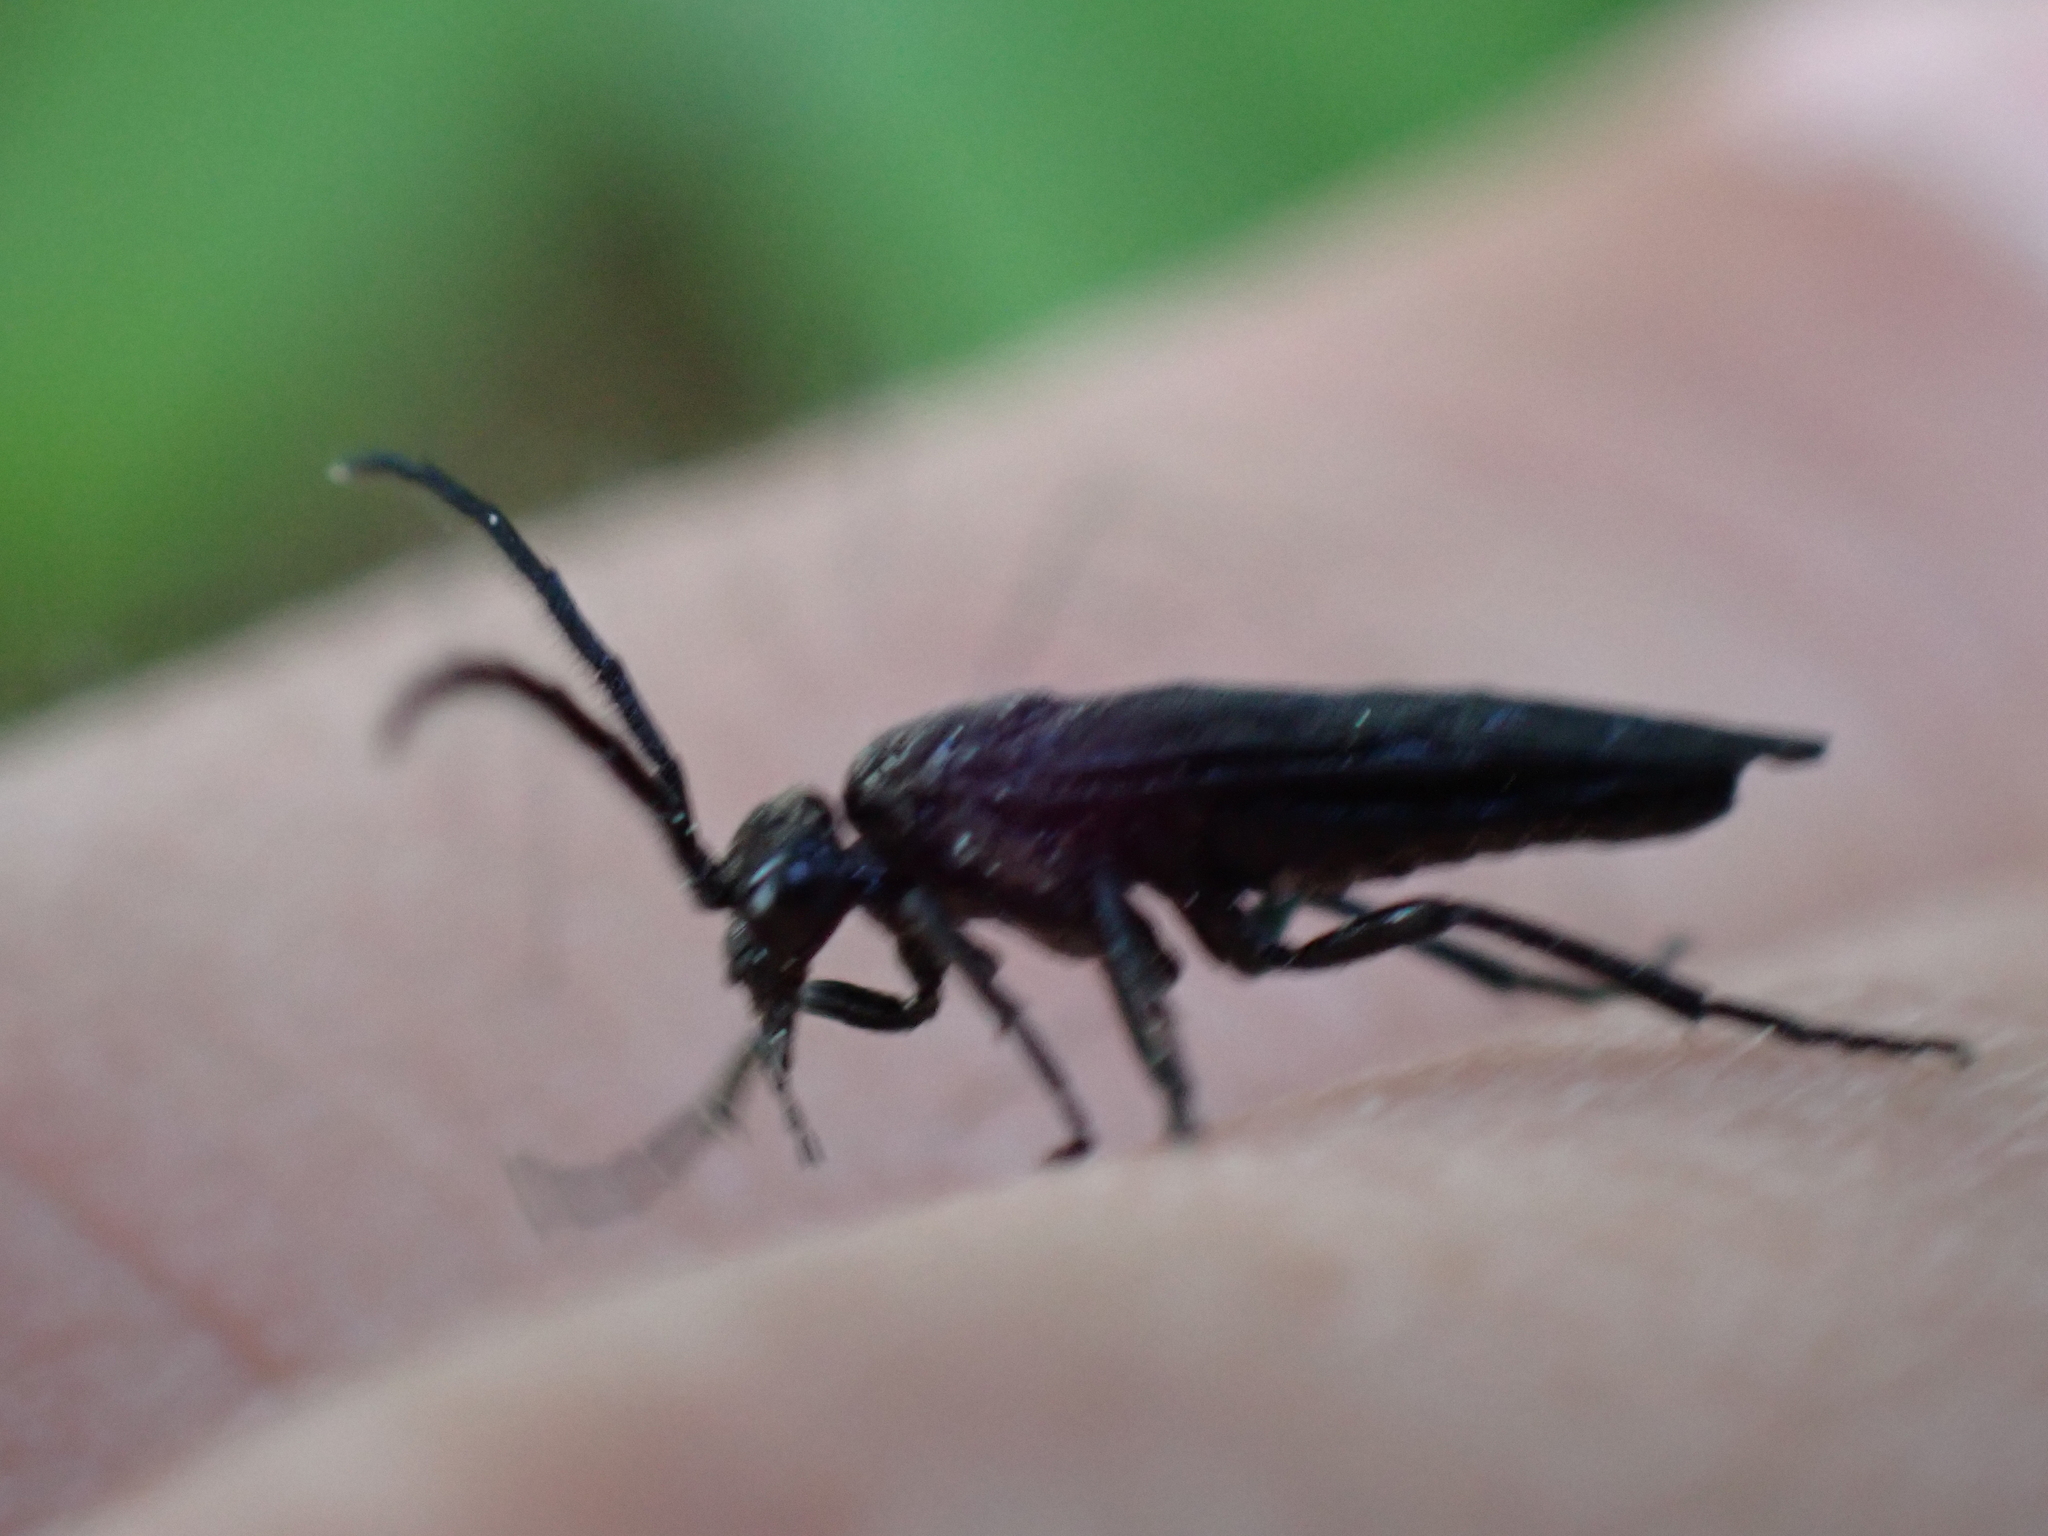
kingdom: Animalia
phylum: Arthropoda
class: Insecta
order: Hymenoptera
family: Tenthredinidae
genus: Phymatocera
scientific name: Phymatocera aterrima
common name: Solomon's-seal sawfly
